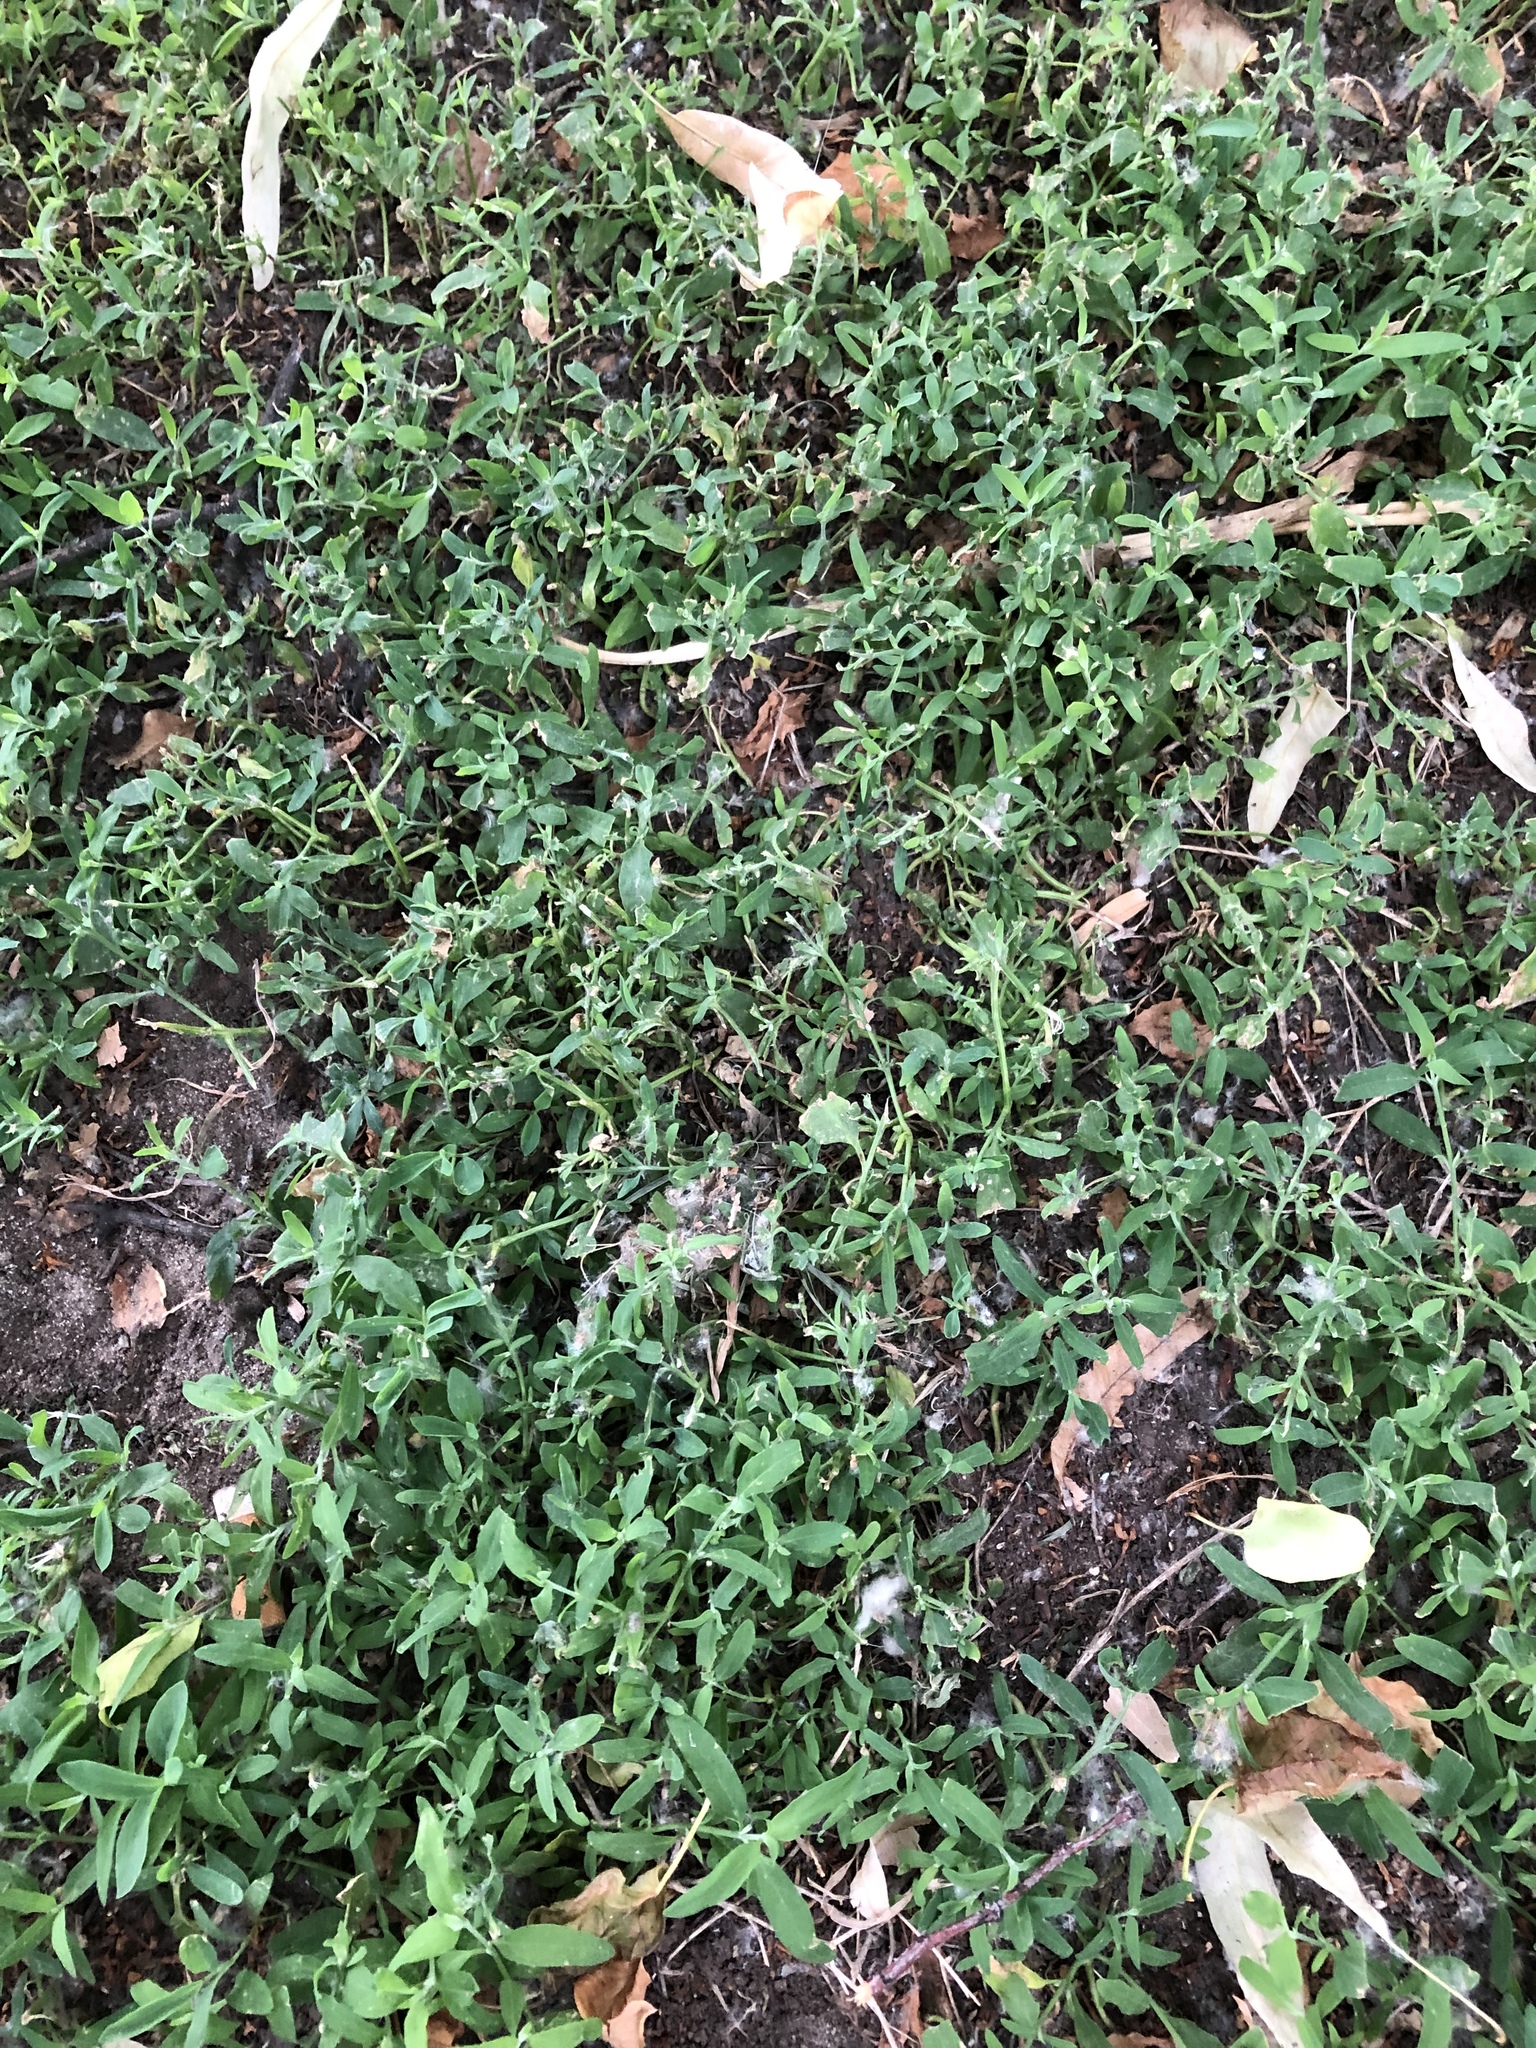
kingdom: Plantae
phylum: Tracheophyta
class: Magnoliopsida
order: Caryophyllales
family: Polygonaceae
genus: Polygonum
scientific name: Polygonum
